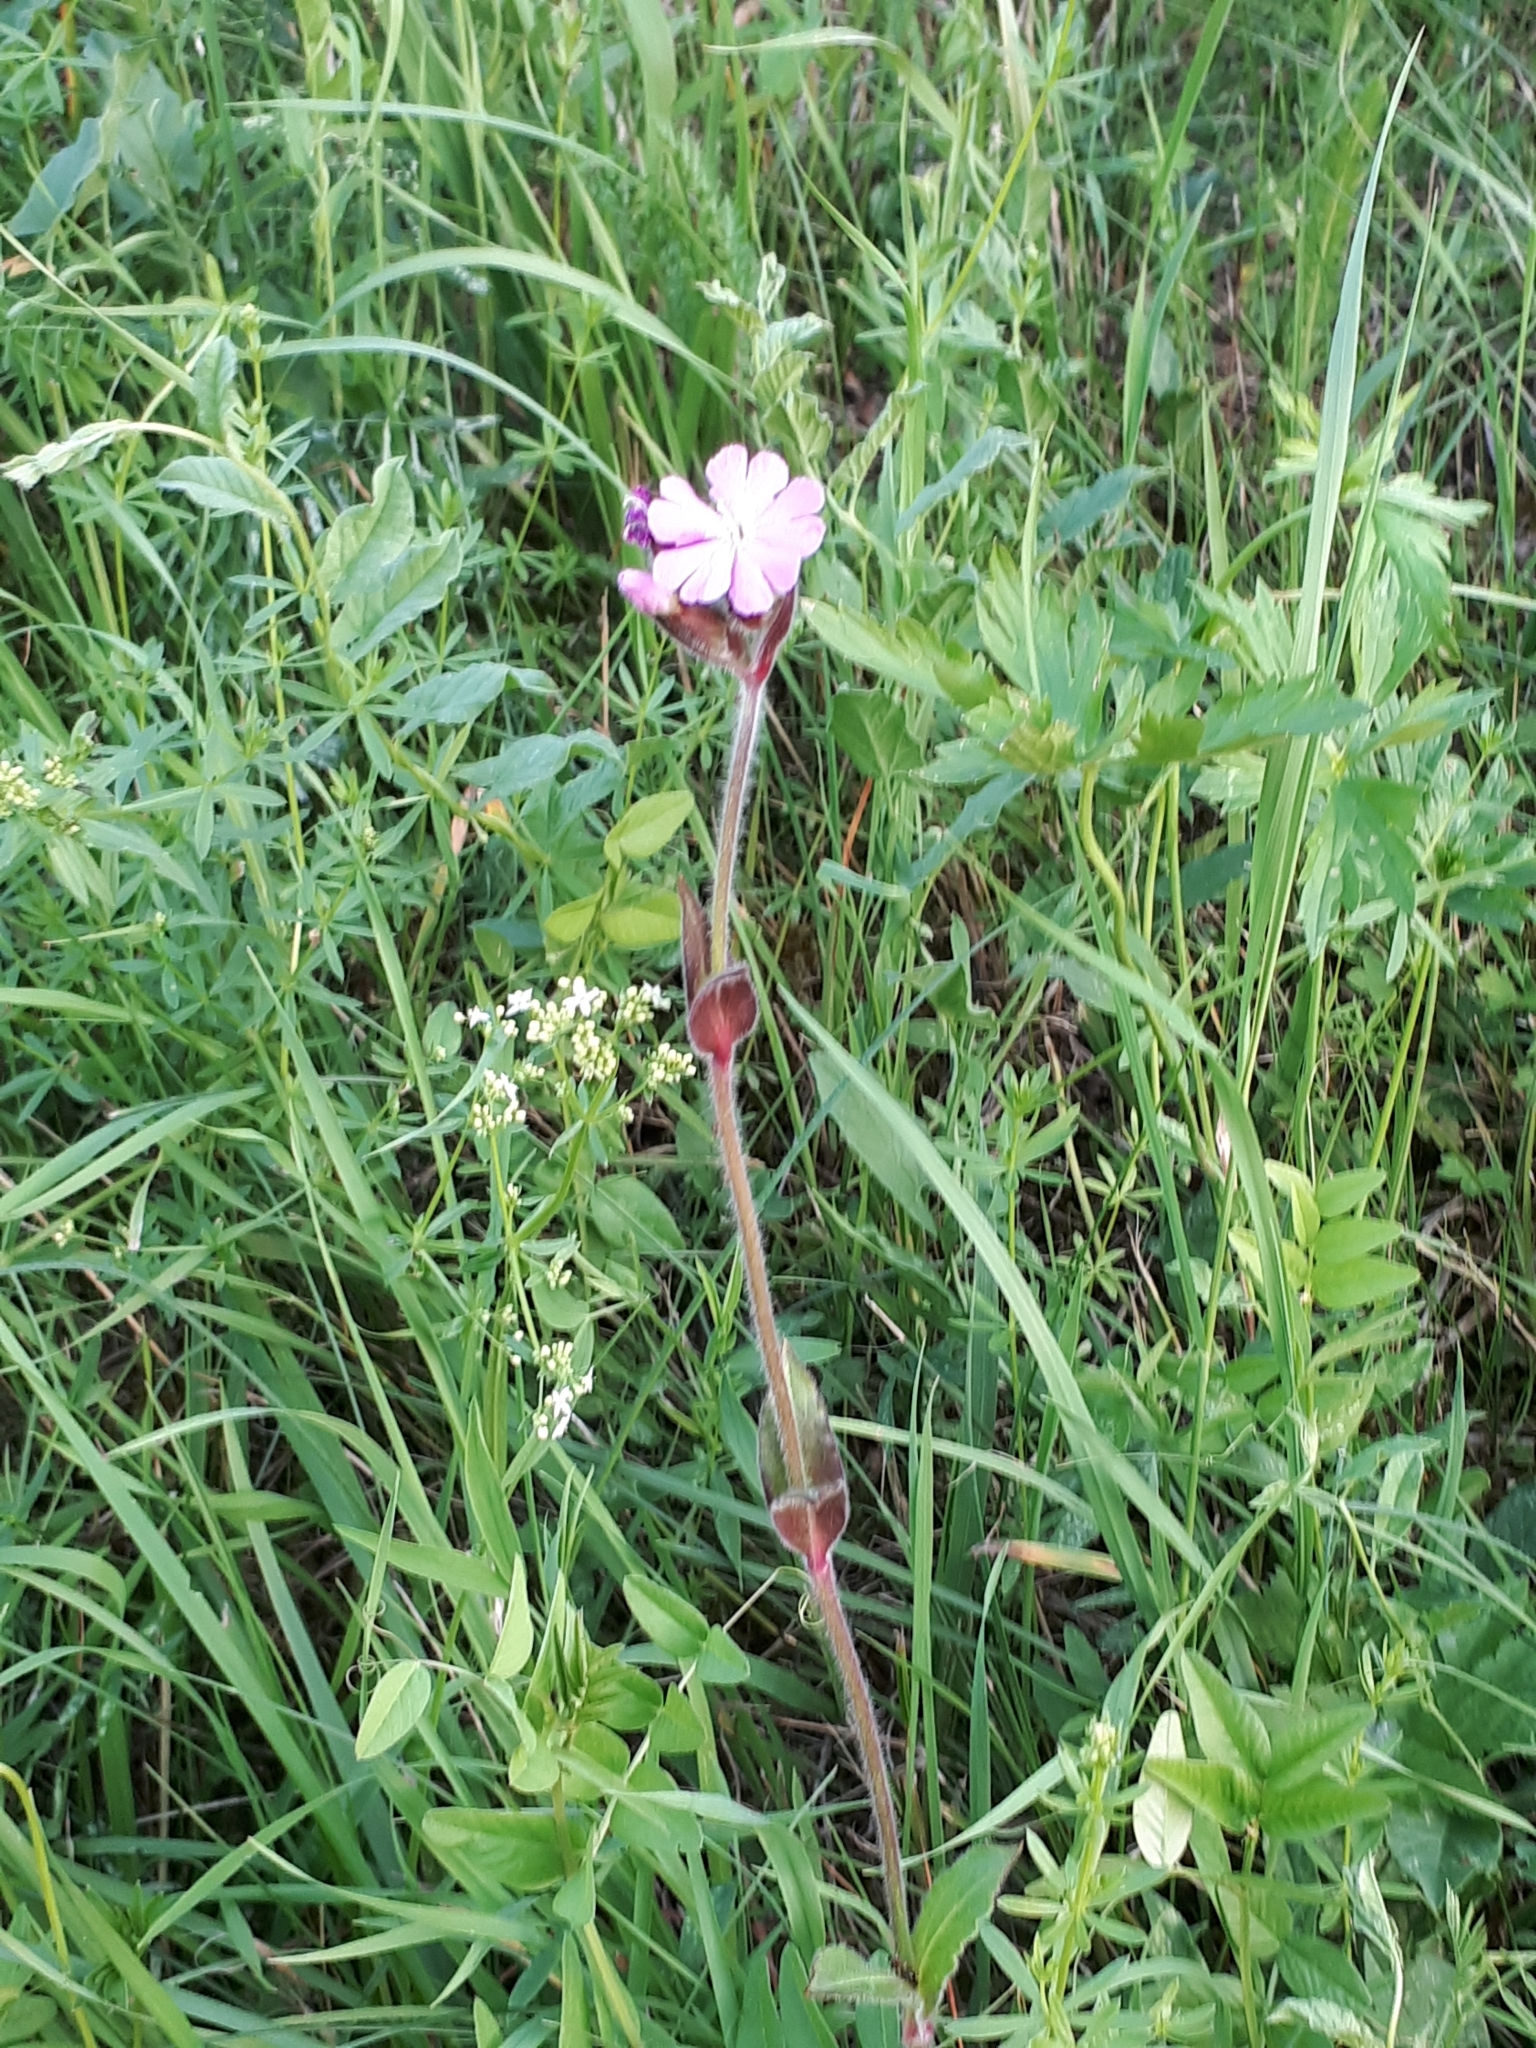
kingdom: Plantae
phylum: Tracheophyta
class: Magnoliopsida
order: Caryophyllales
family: Caryophyllaceae
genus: Silene
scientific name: Silene dioica
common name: Red campion
